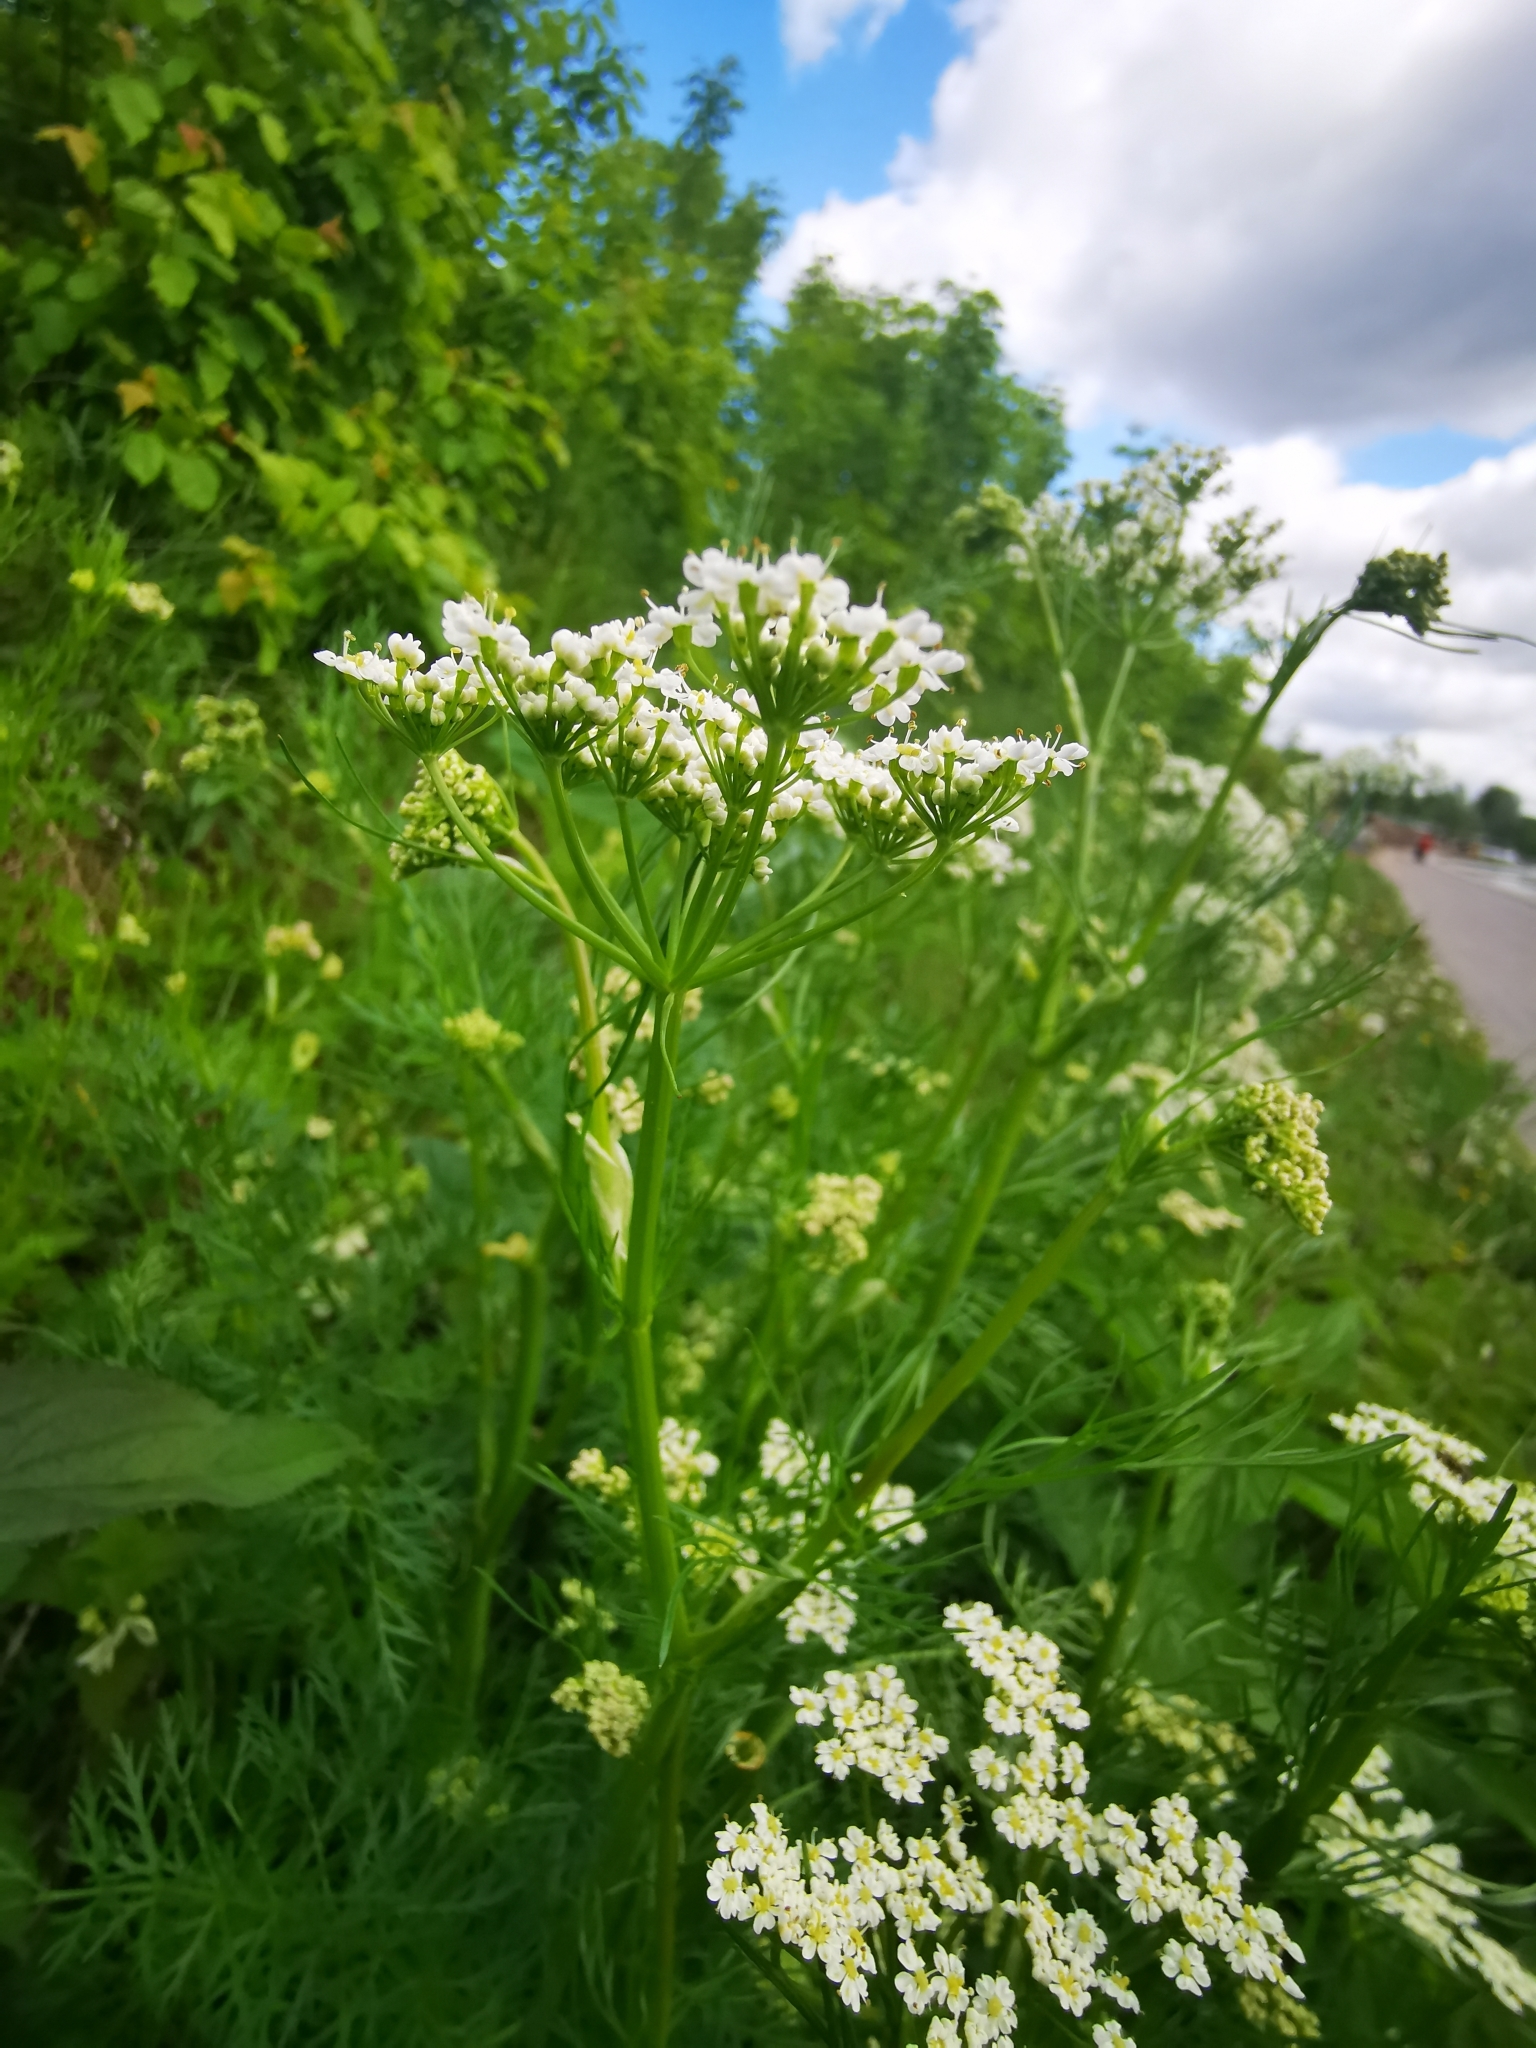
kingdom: Plantae
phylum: Tracheophyta
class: Magnoliopsida
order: Apiales
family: Apiaceae
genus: Carum
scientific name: Carum carvi
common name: Caraway
